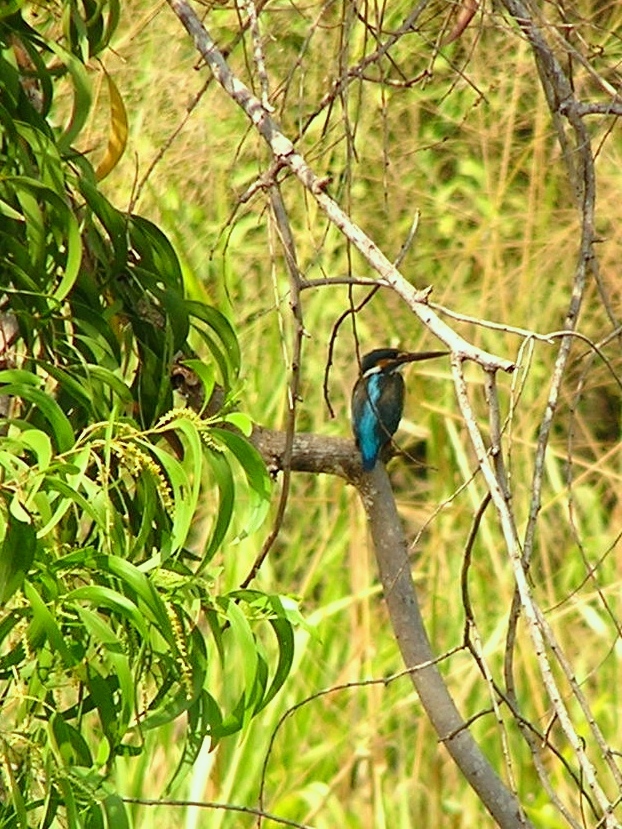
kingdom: Animalia
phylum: Chordata
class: Aves
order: Coraciiformes
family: Alcedinidae
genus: Alcedo
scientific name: Alcedo atthis
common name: Common kingfisher
